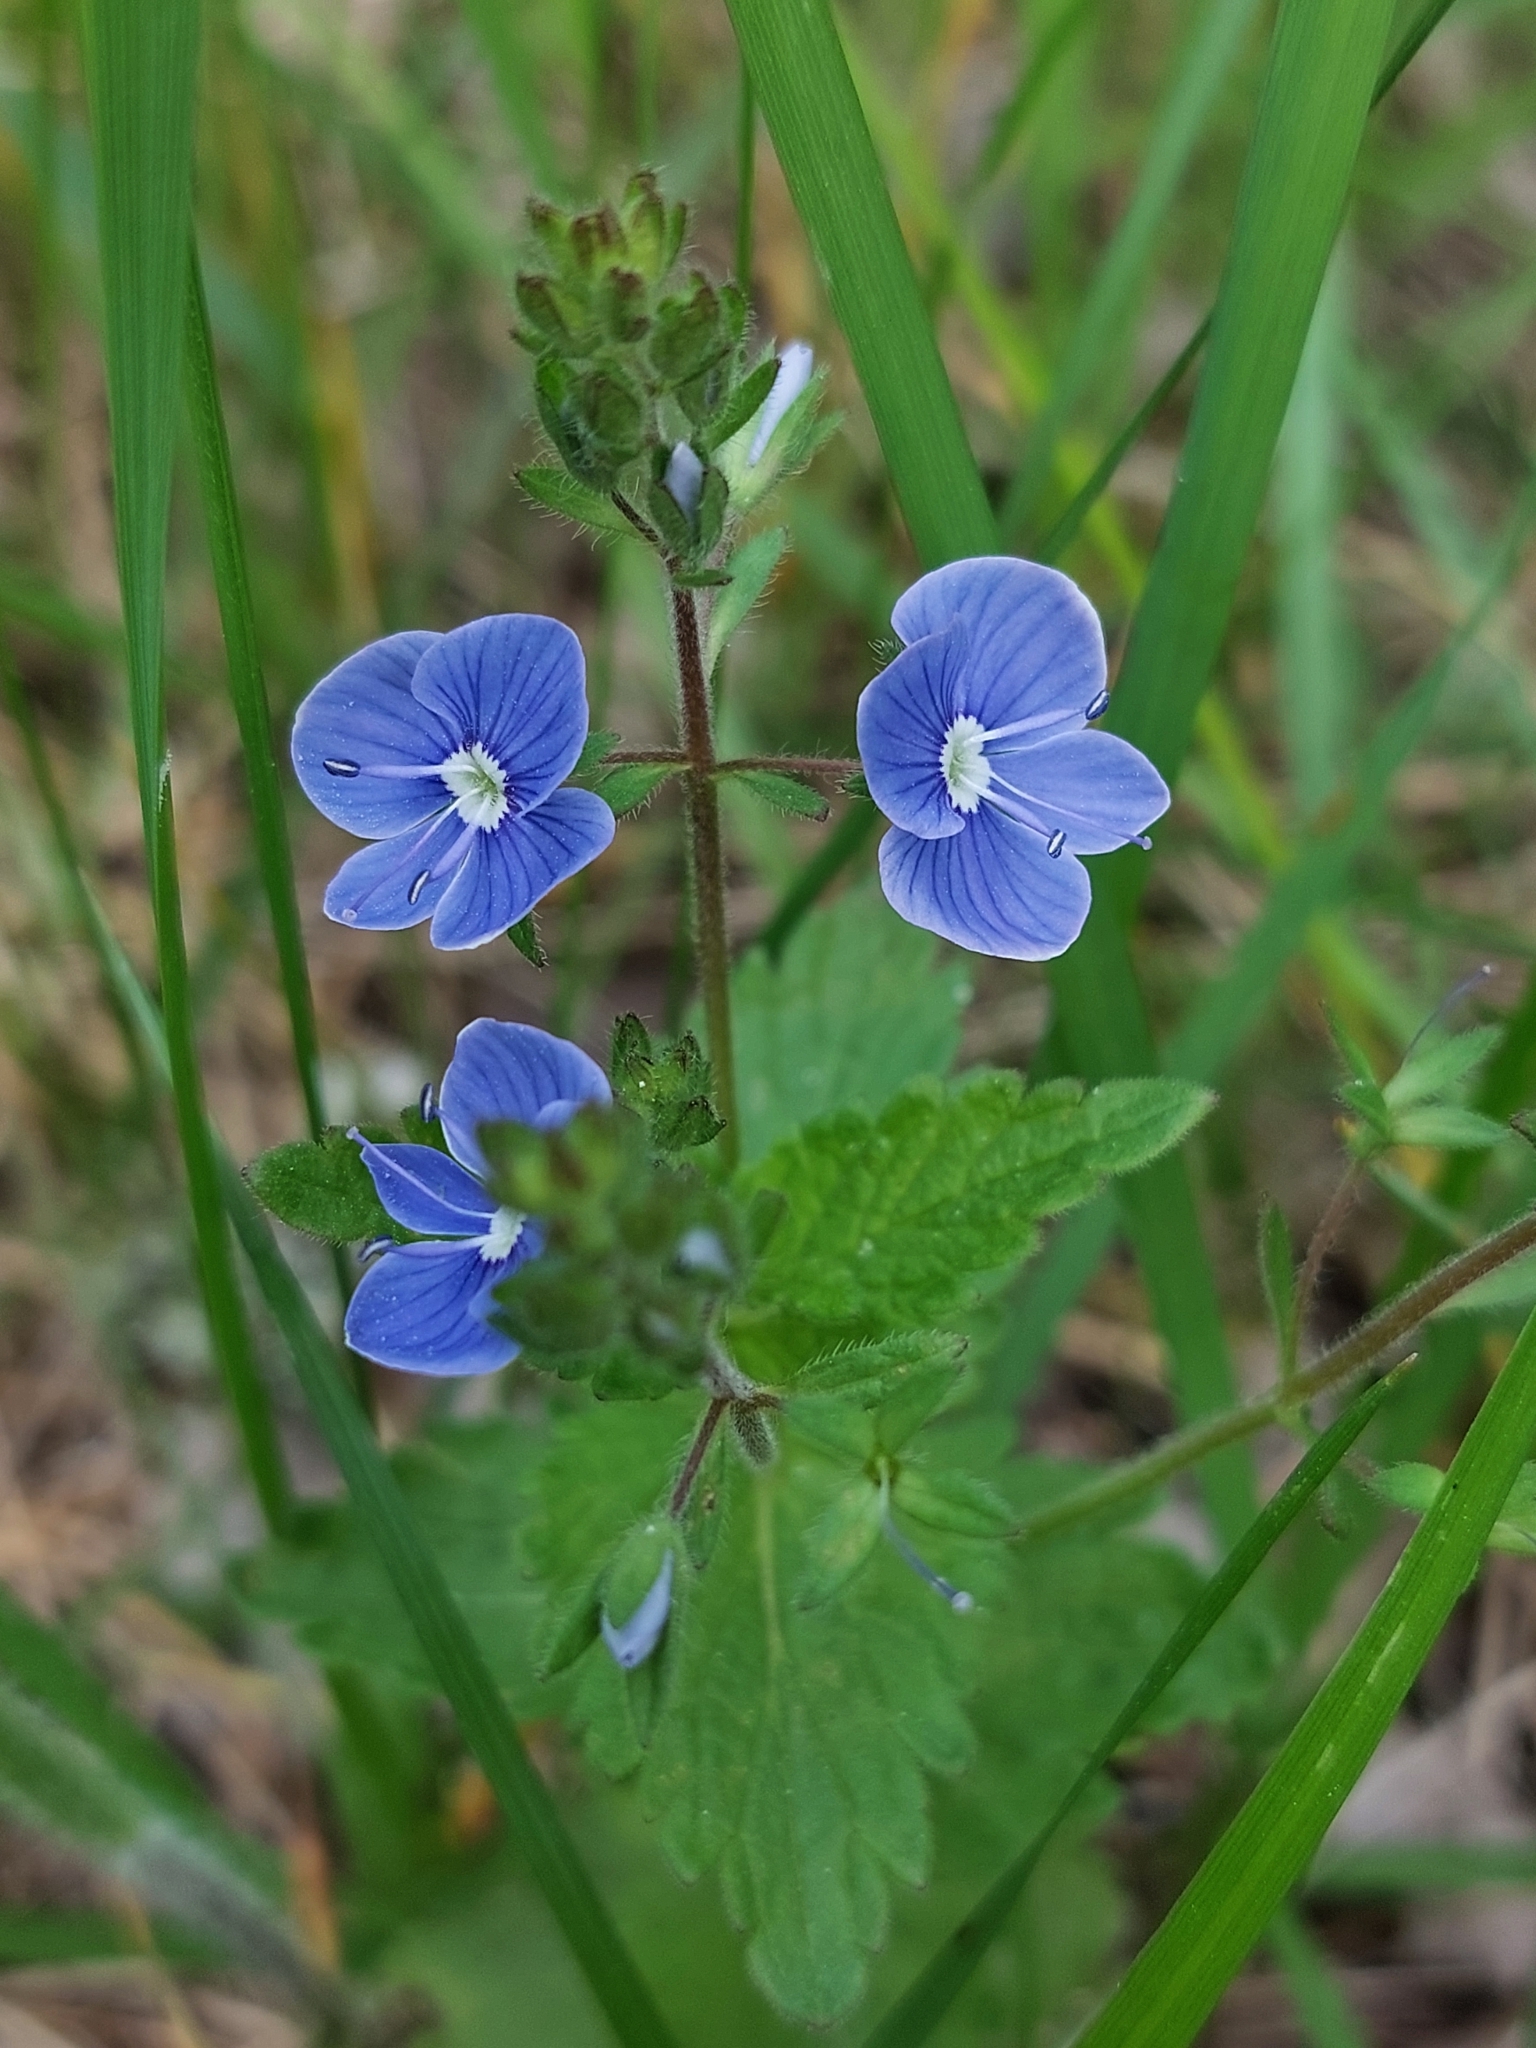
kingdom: Plantae
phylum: Tracheophyta
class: Magnoliopsida
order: Lamiales
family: Plantaginaceae
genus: Veronica
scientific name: Veronica chamaedrys
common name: Germander speedwell
